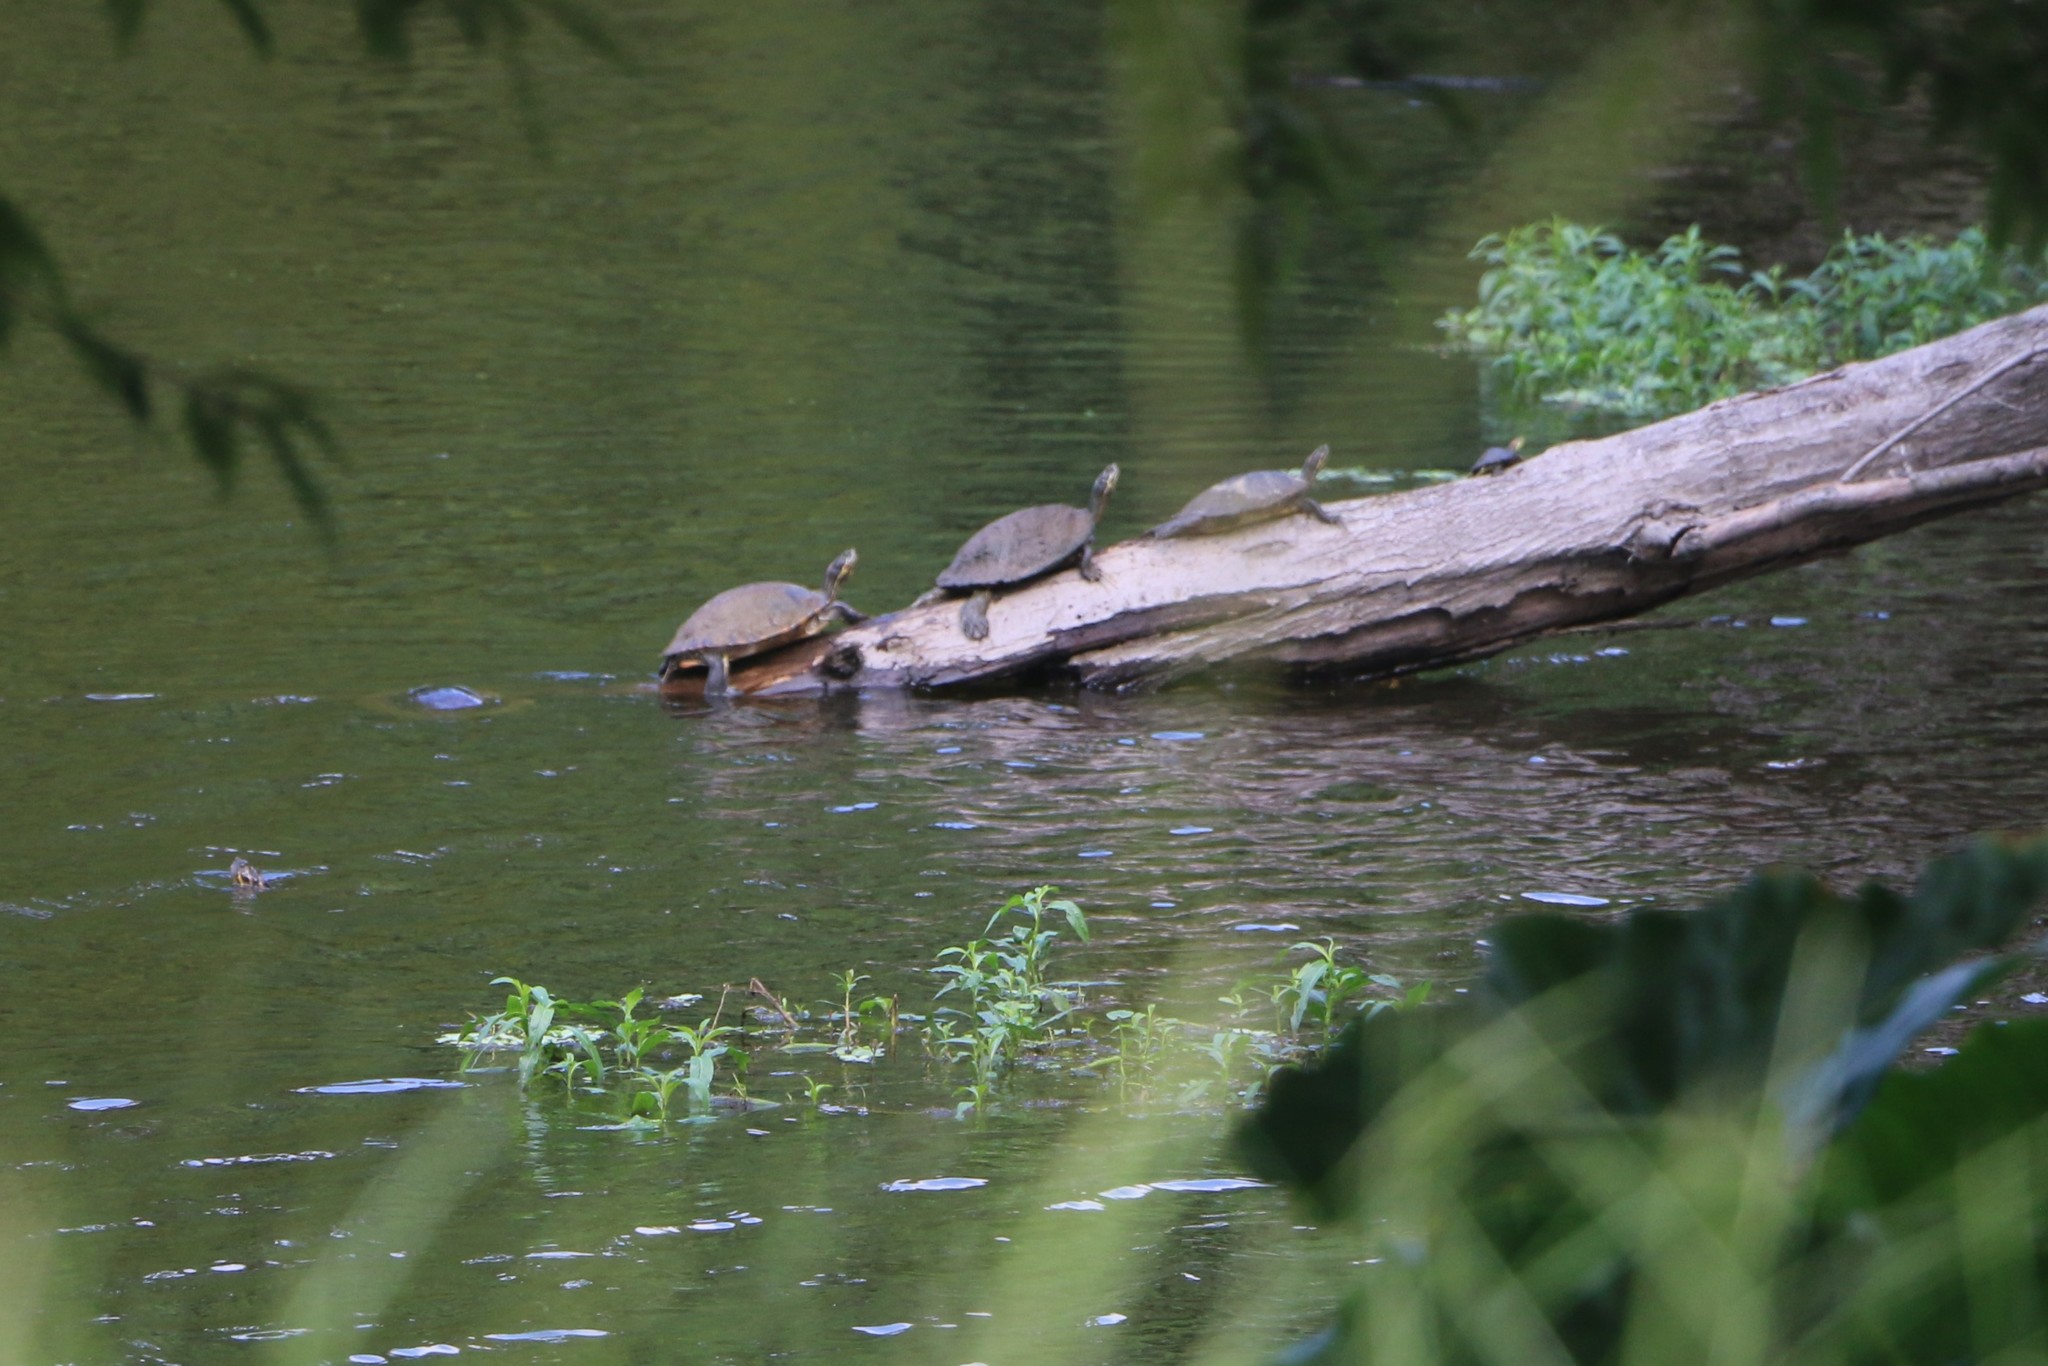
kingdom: Animalia
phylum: Chordata
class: Testudines
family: Emydidae
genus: Trachemys
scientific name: Trachemys scripta
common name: Slider
